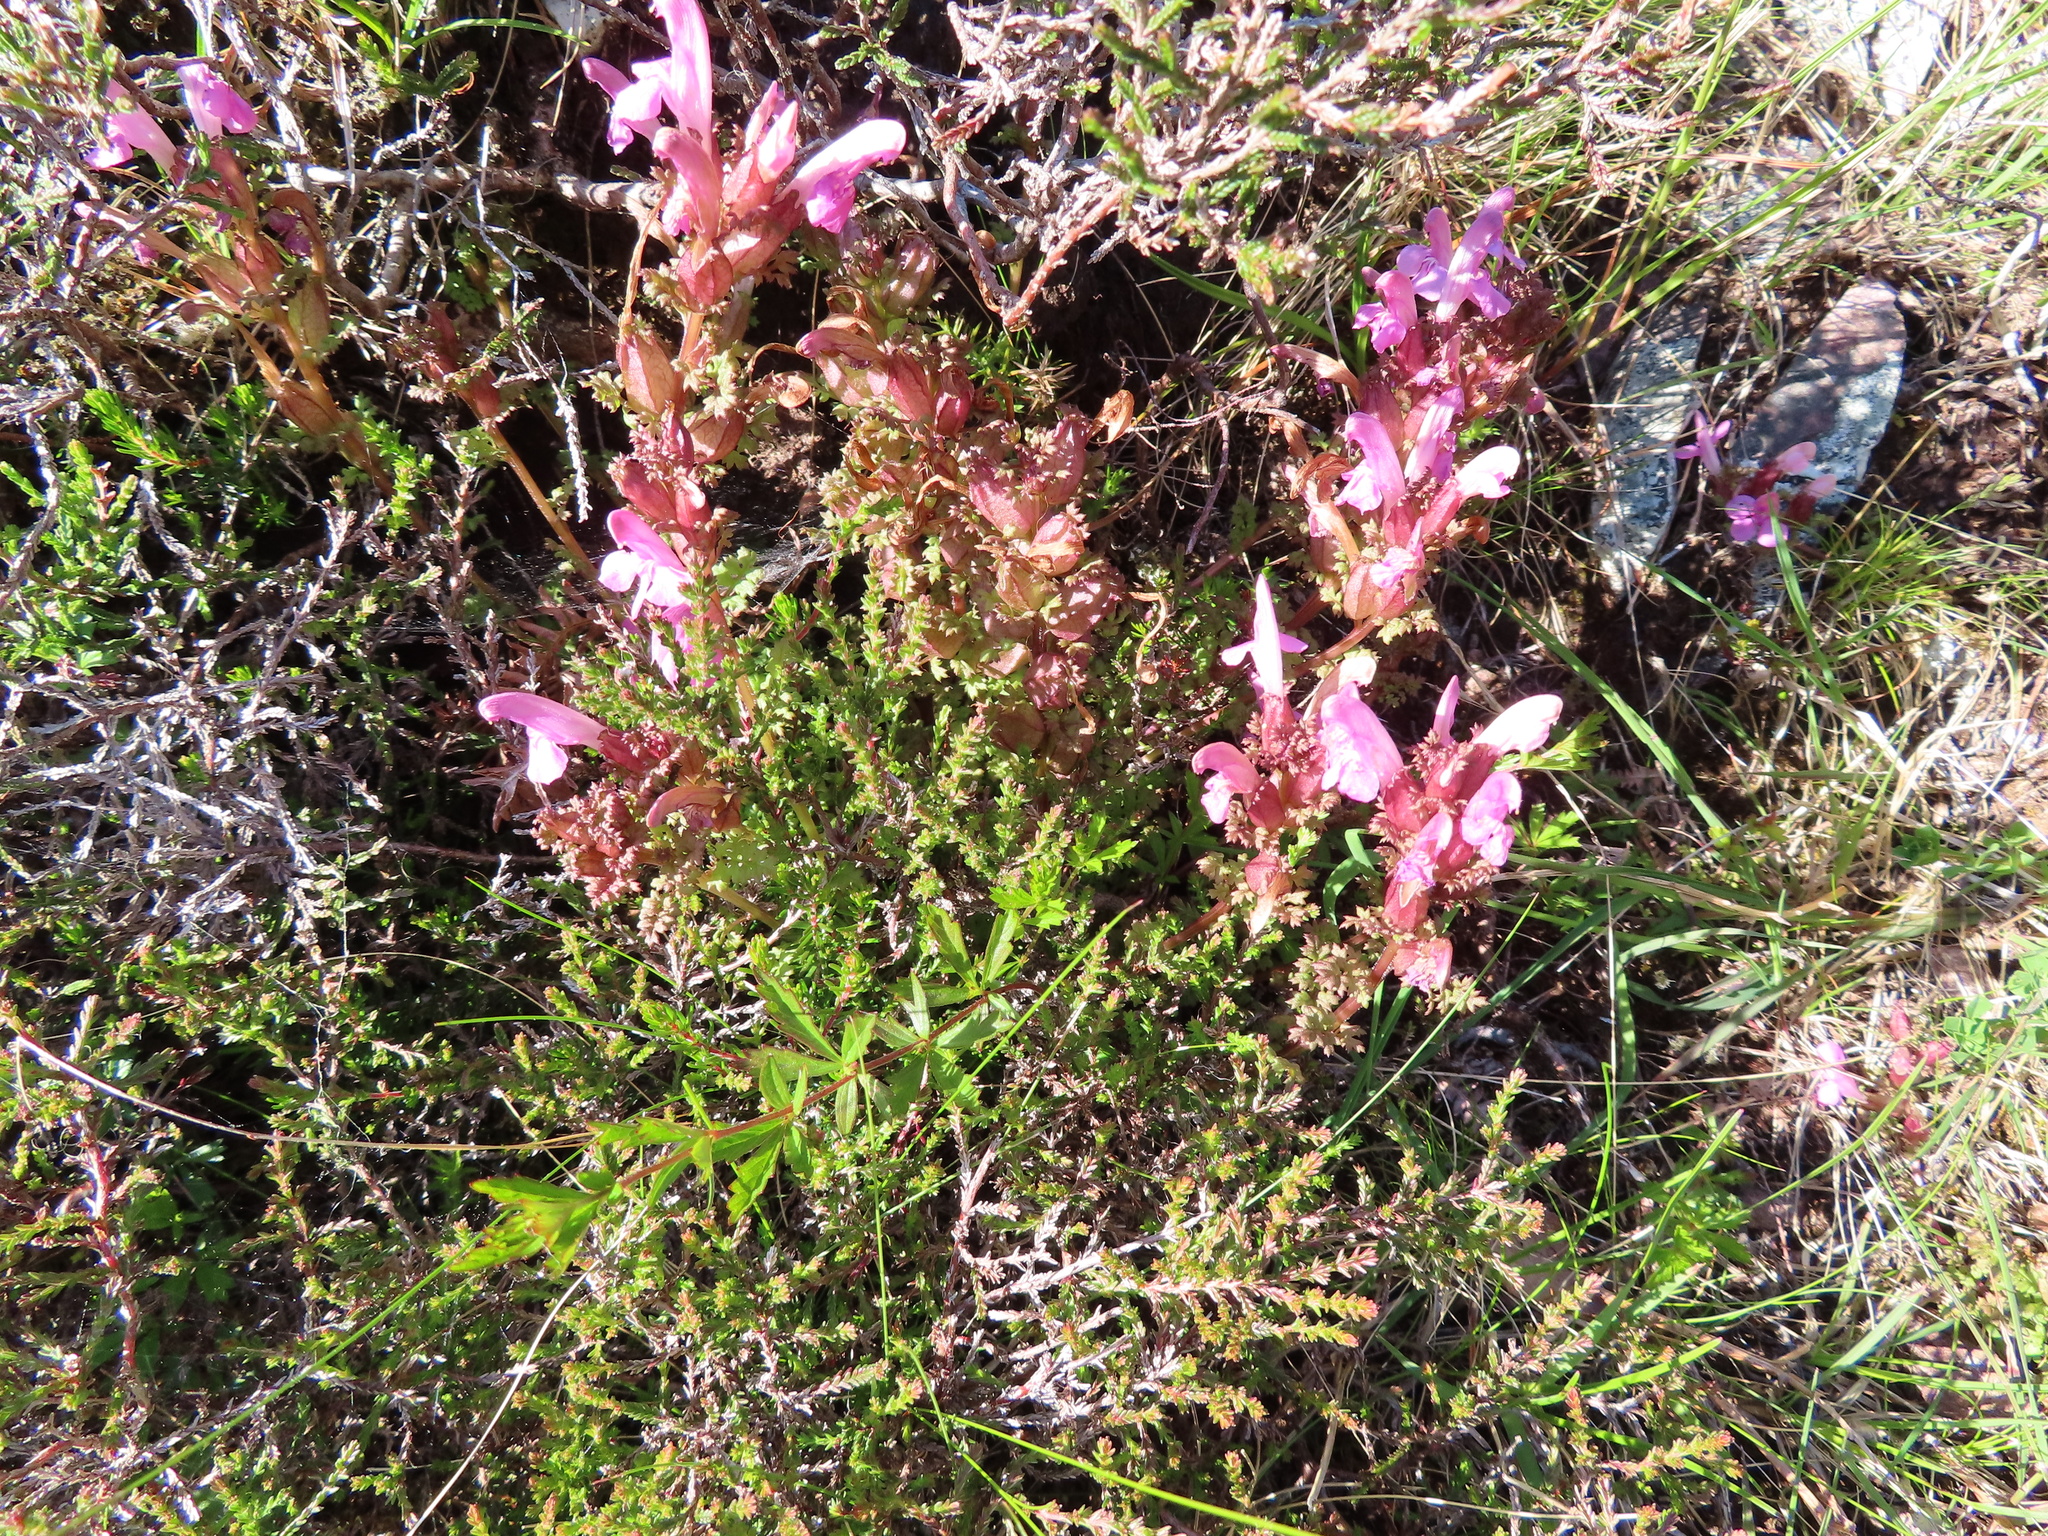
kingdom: Plantae
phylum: Tracheophyta
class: Magnoliopsida
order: Lamiales
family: Orobanchaceae
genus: Pedicularis
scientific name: Pedicularis sylvatica
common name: Lousewort
